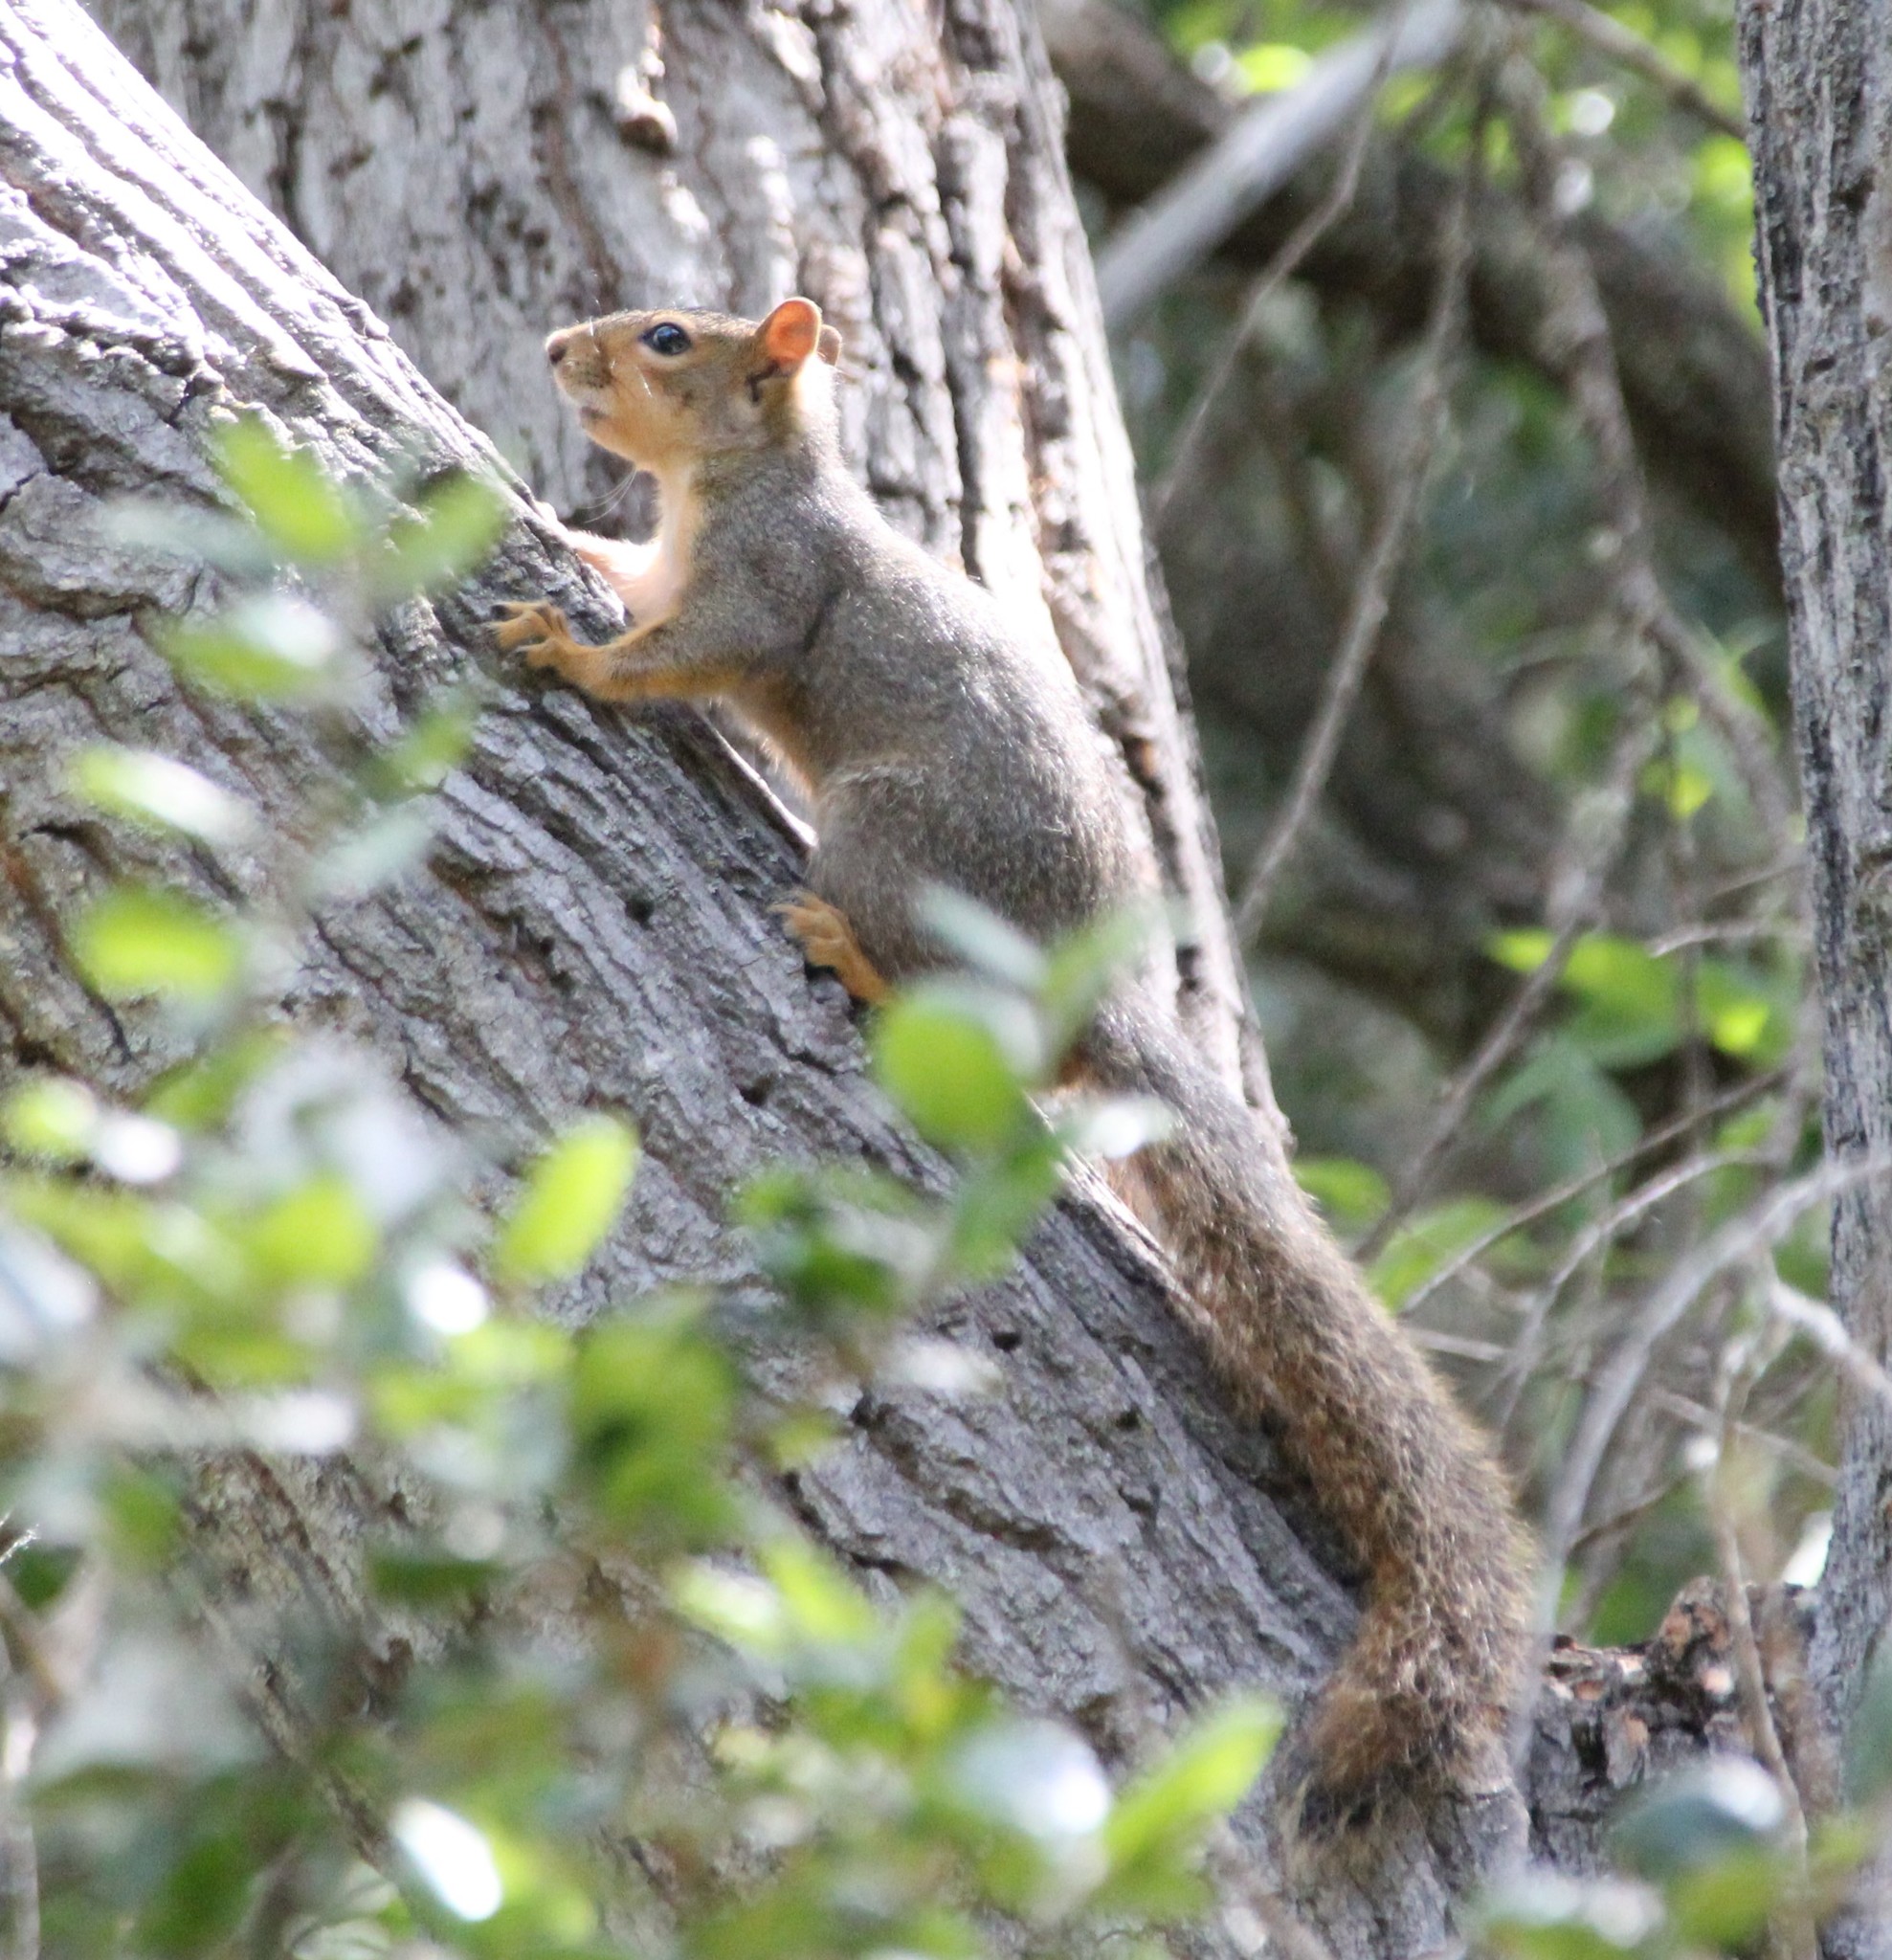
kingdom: Animalia
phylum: Chordata
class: Mammalia
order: Rodentia
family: Sciuridae
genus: Sciurus
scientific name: Sciurus niger
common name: Fox squirrel
